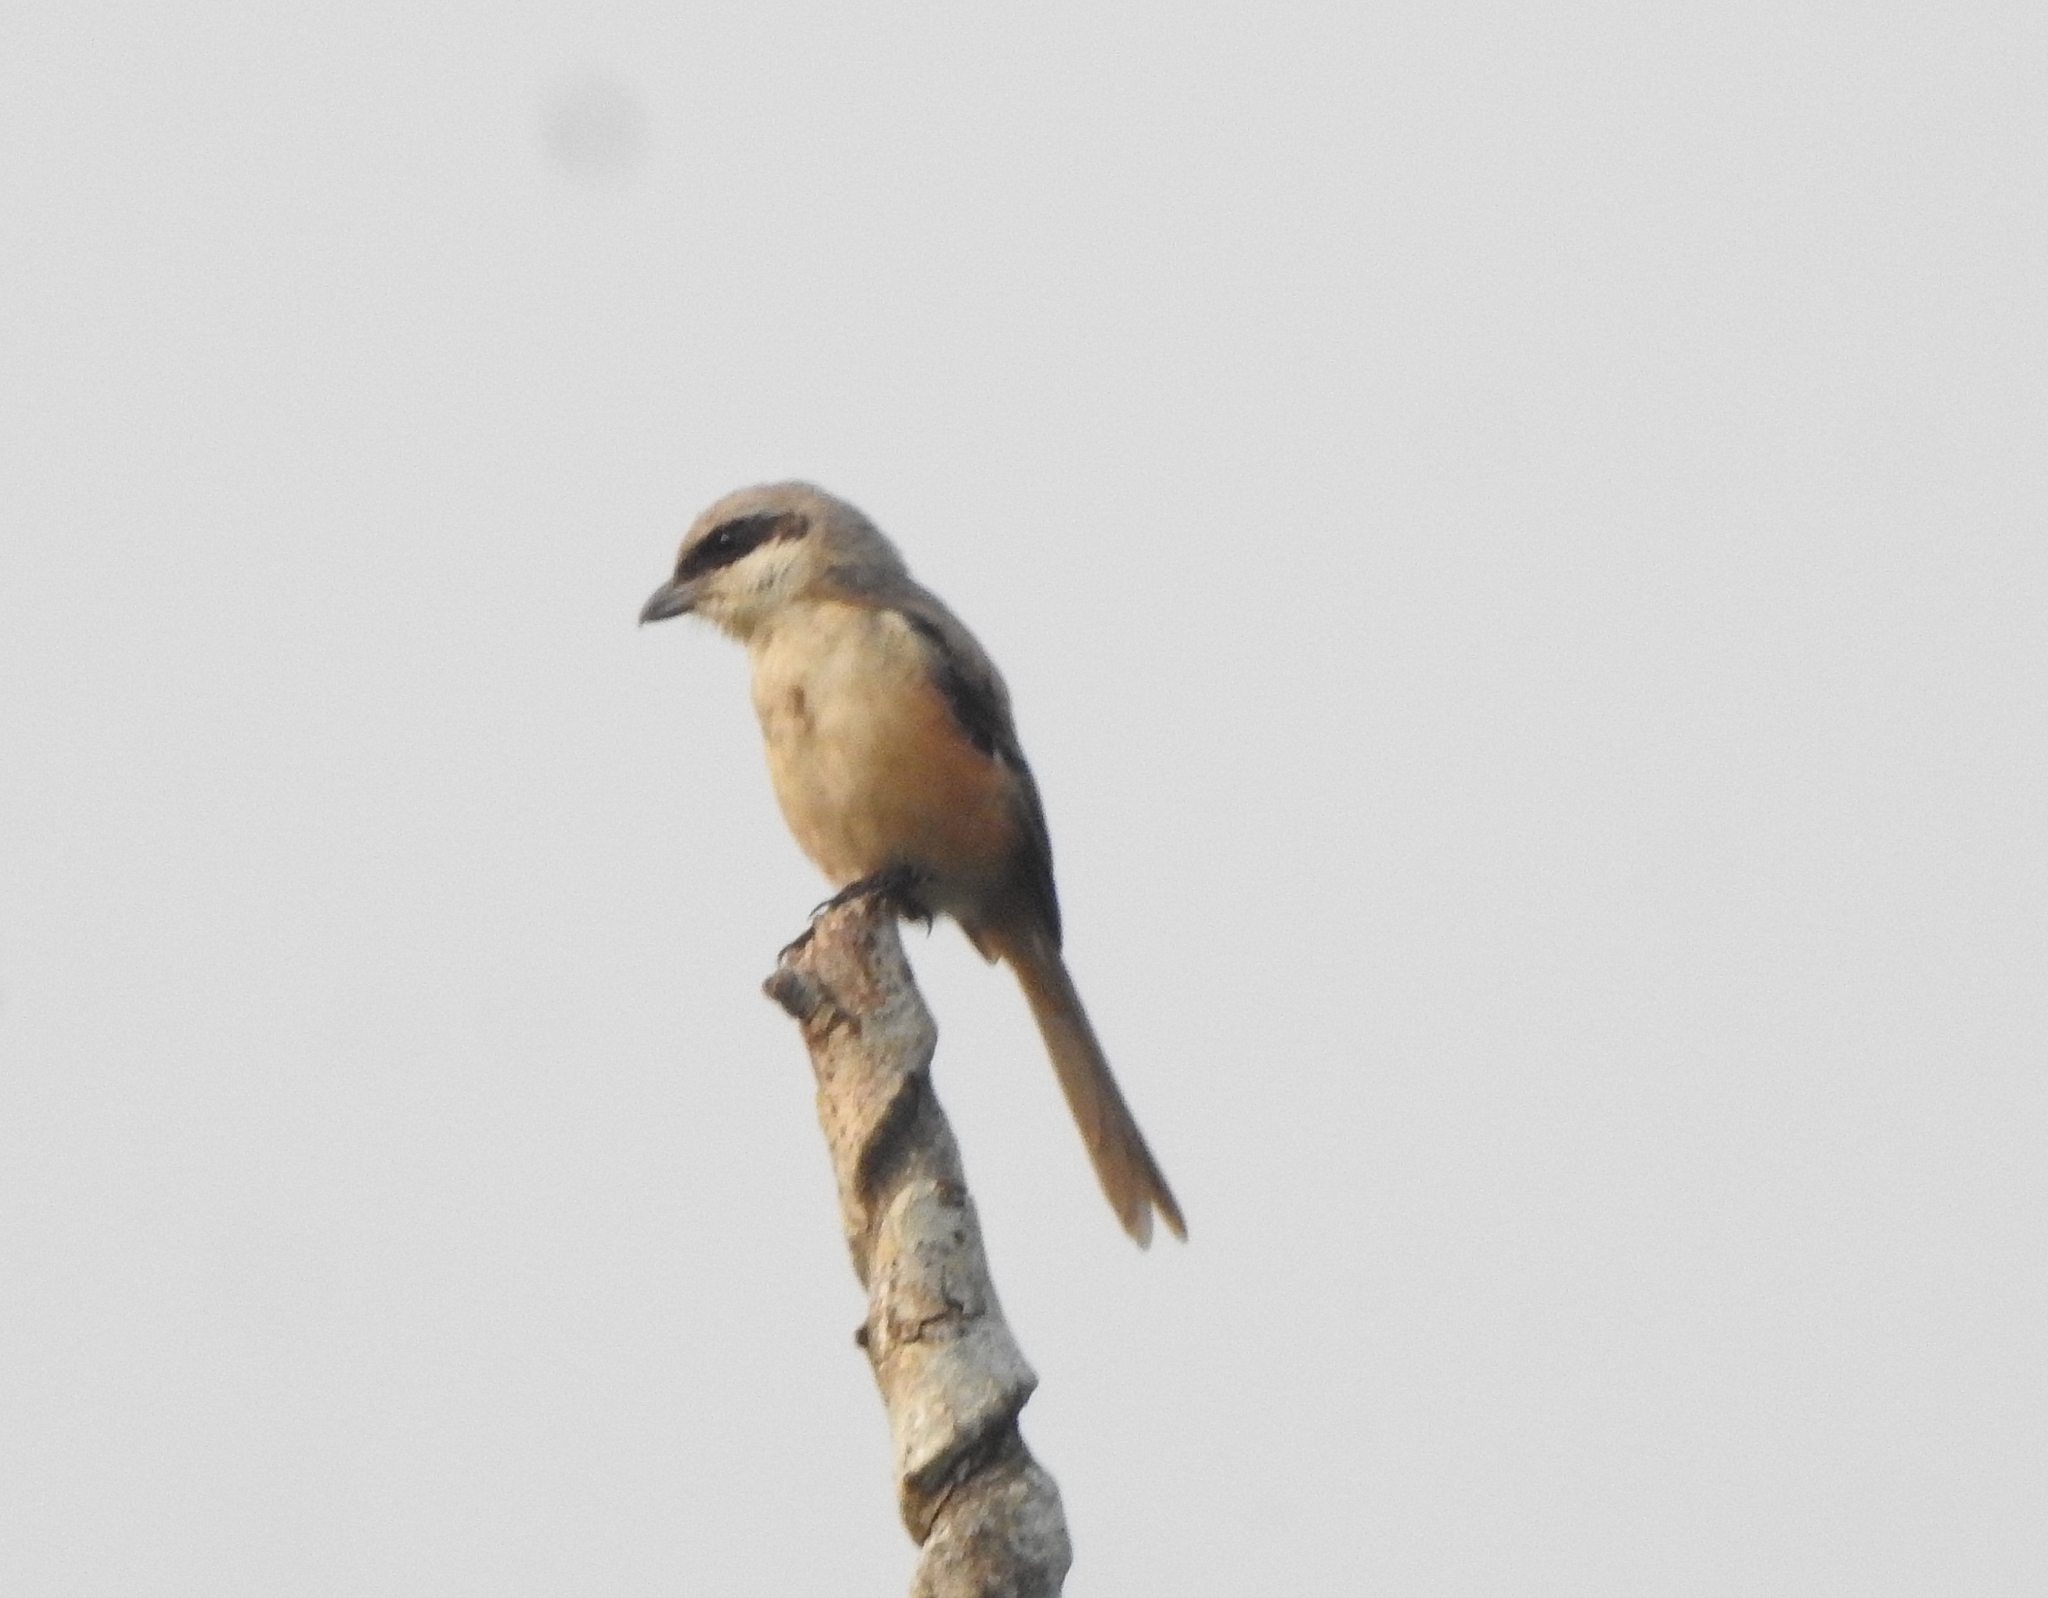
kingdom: Animalia
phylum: Chordata
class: Aves
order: Passeriformes
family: Laniidae
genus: Lanius
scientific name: Lanius schach
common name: Long-tailed shrike
